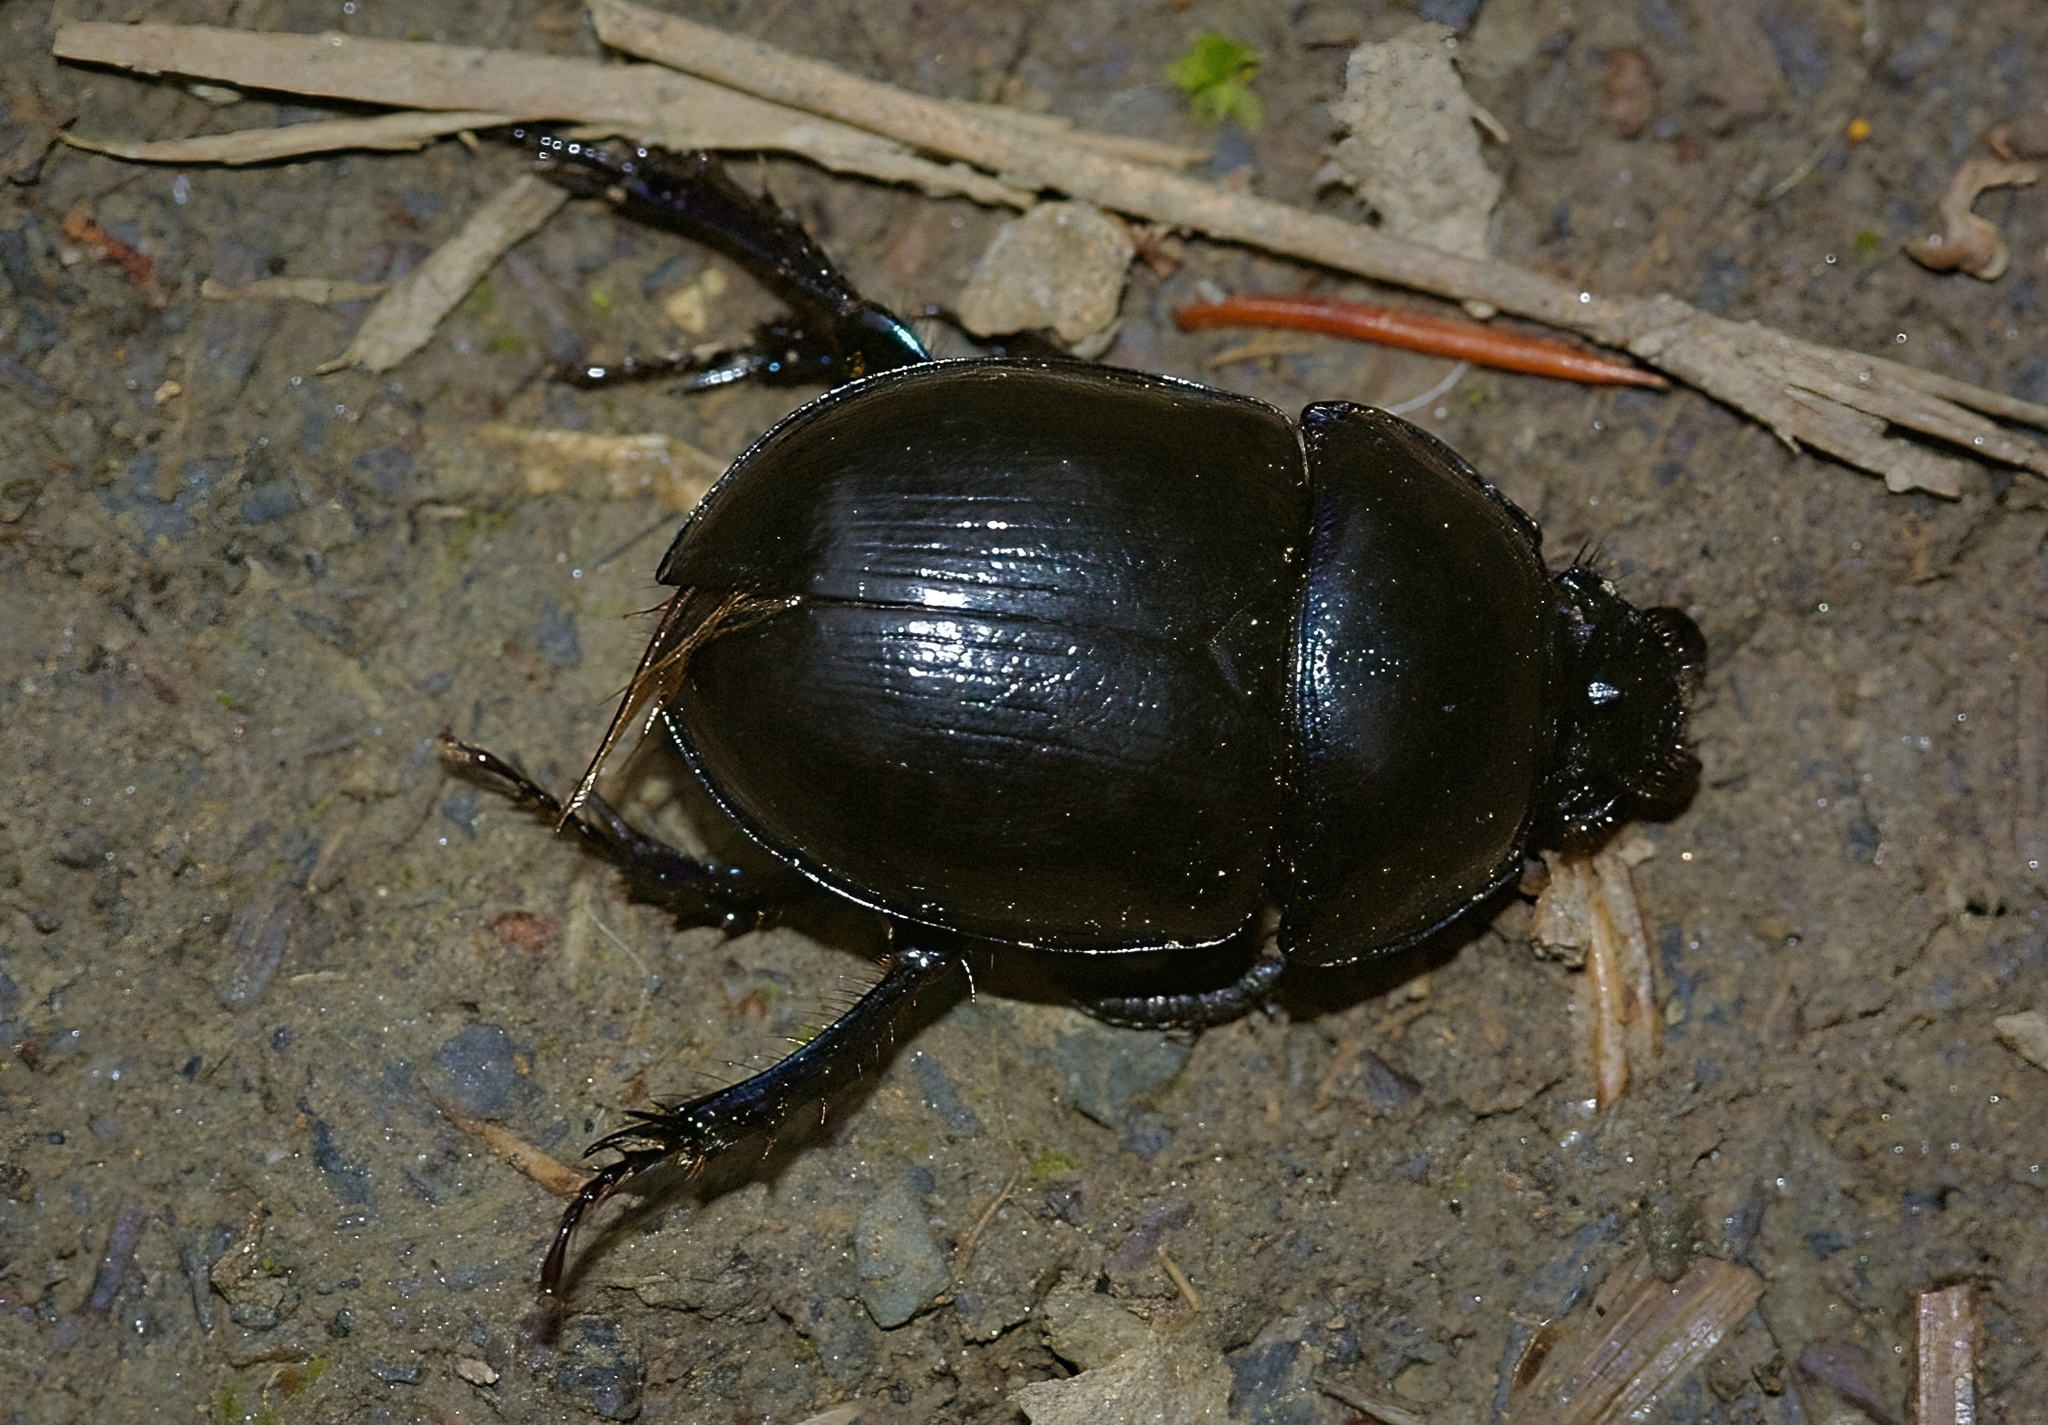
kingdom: Animalia
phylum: Arthropoda
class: Insecta
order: Coleoptera
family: Geotrupidae
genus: Anoplotrupes
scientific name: Anoplotrupes stercorosus
